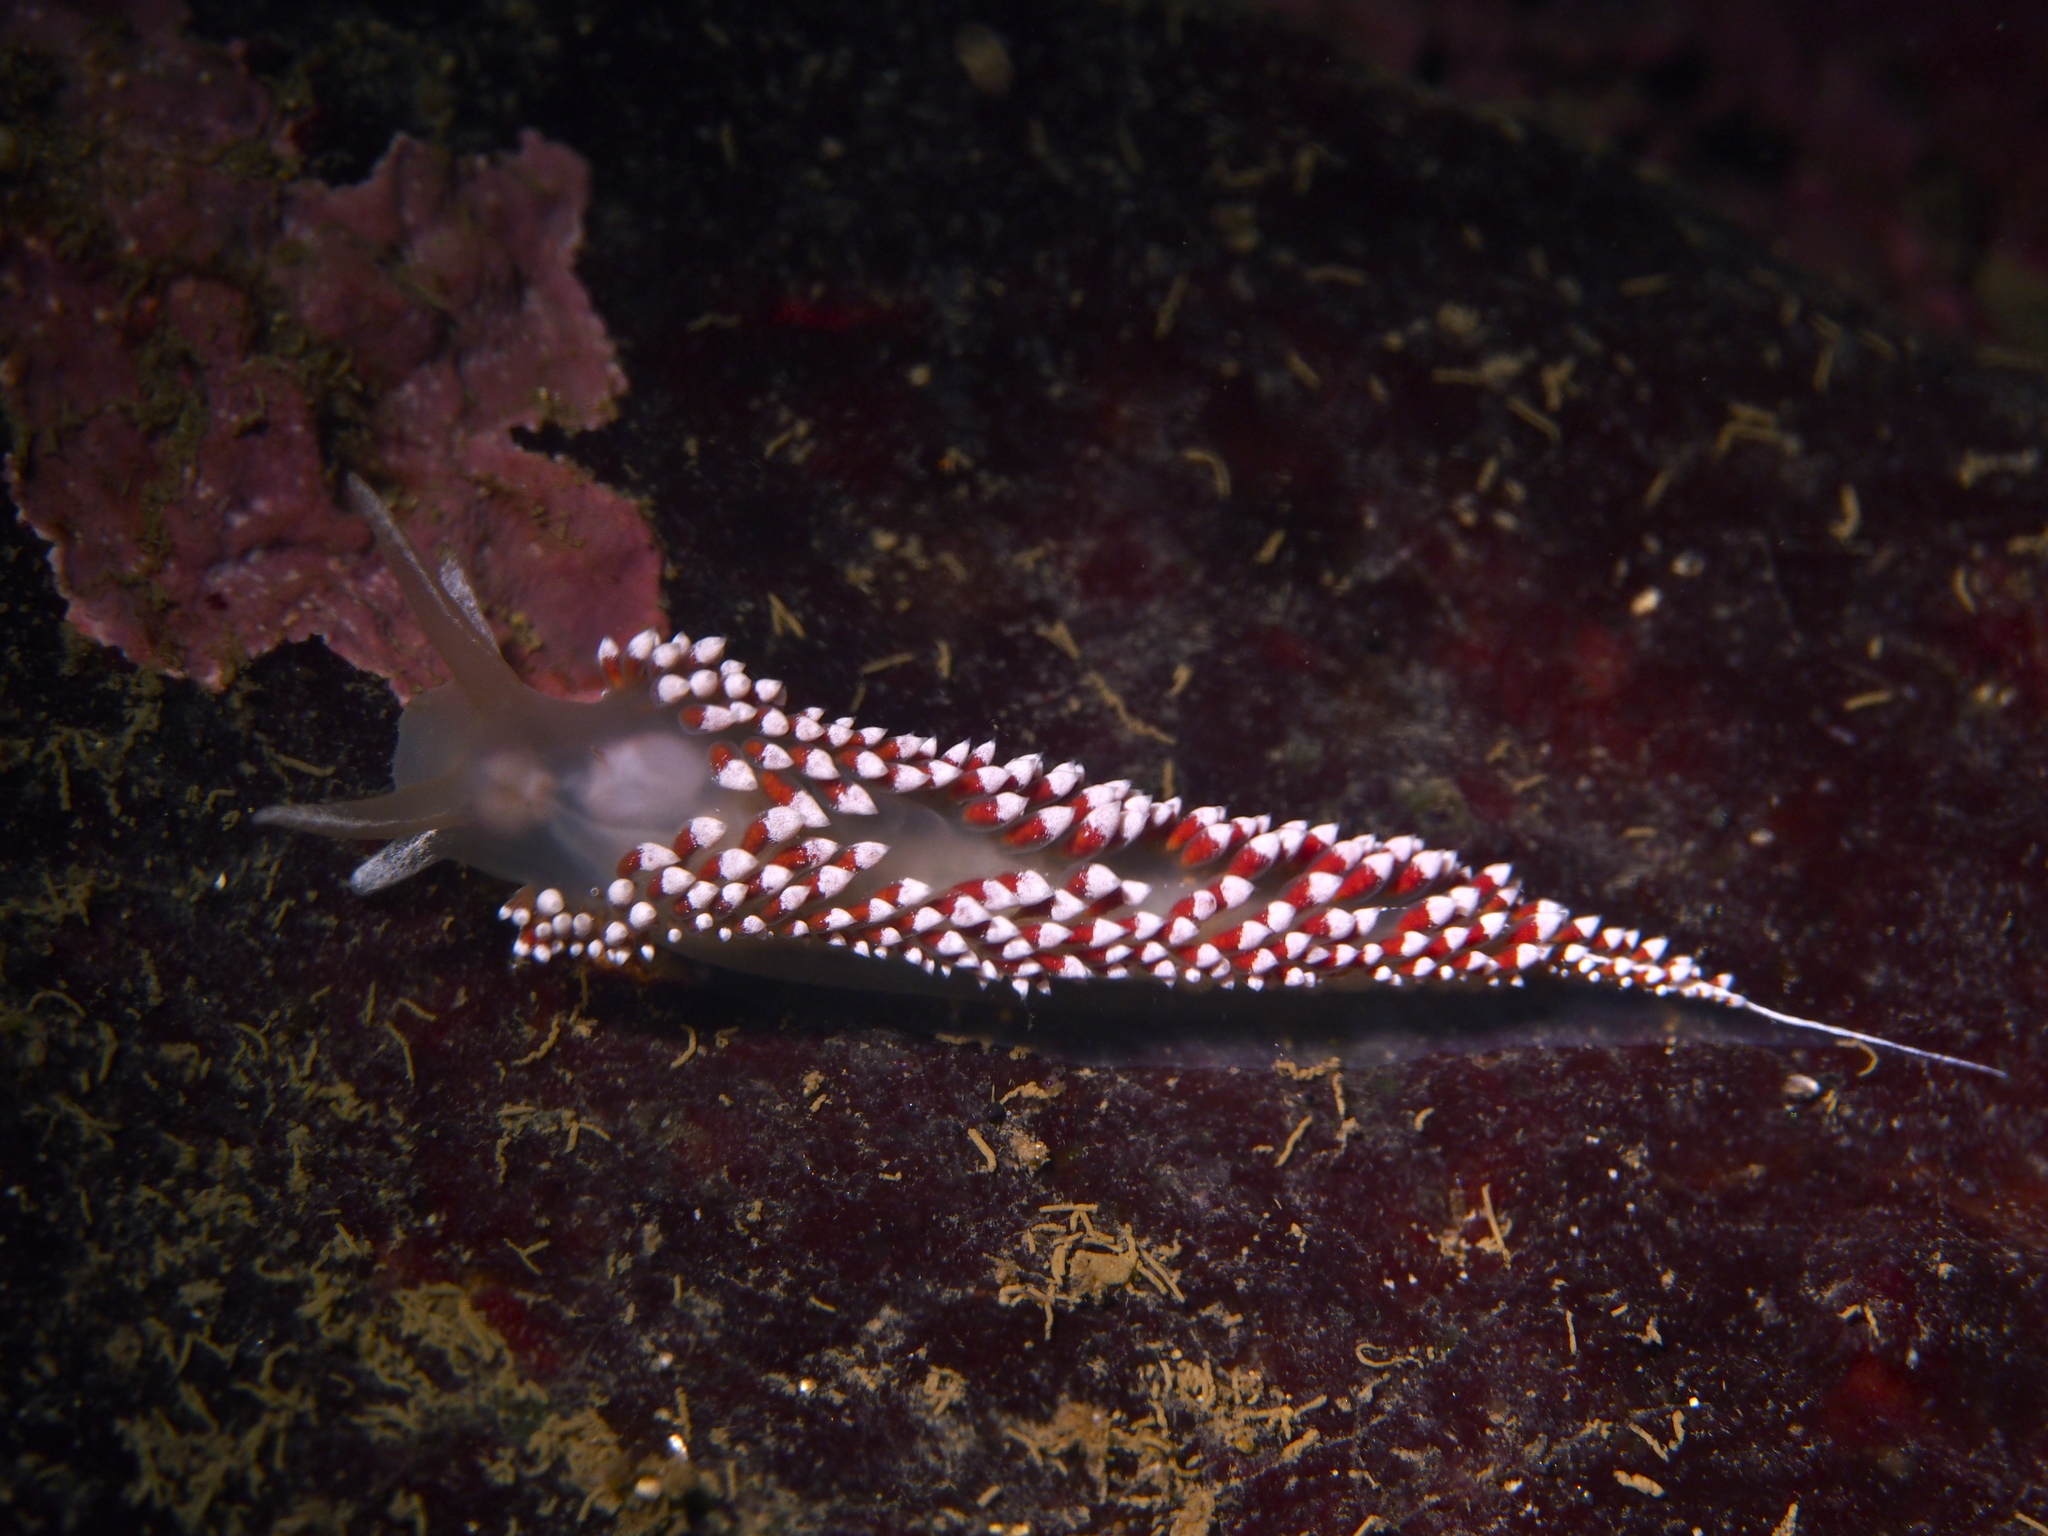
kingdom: Animalia
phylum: Mollusca
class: Gastropoda
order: Nudibranchia
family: Coryphellidae
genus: Coryphella
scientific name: Coryphella verrucosa
